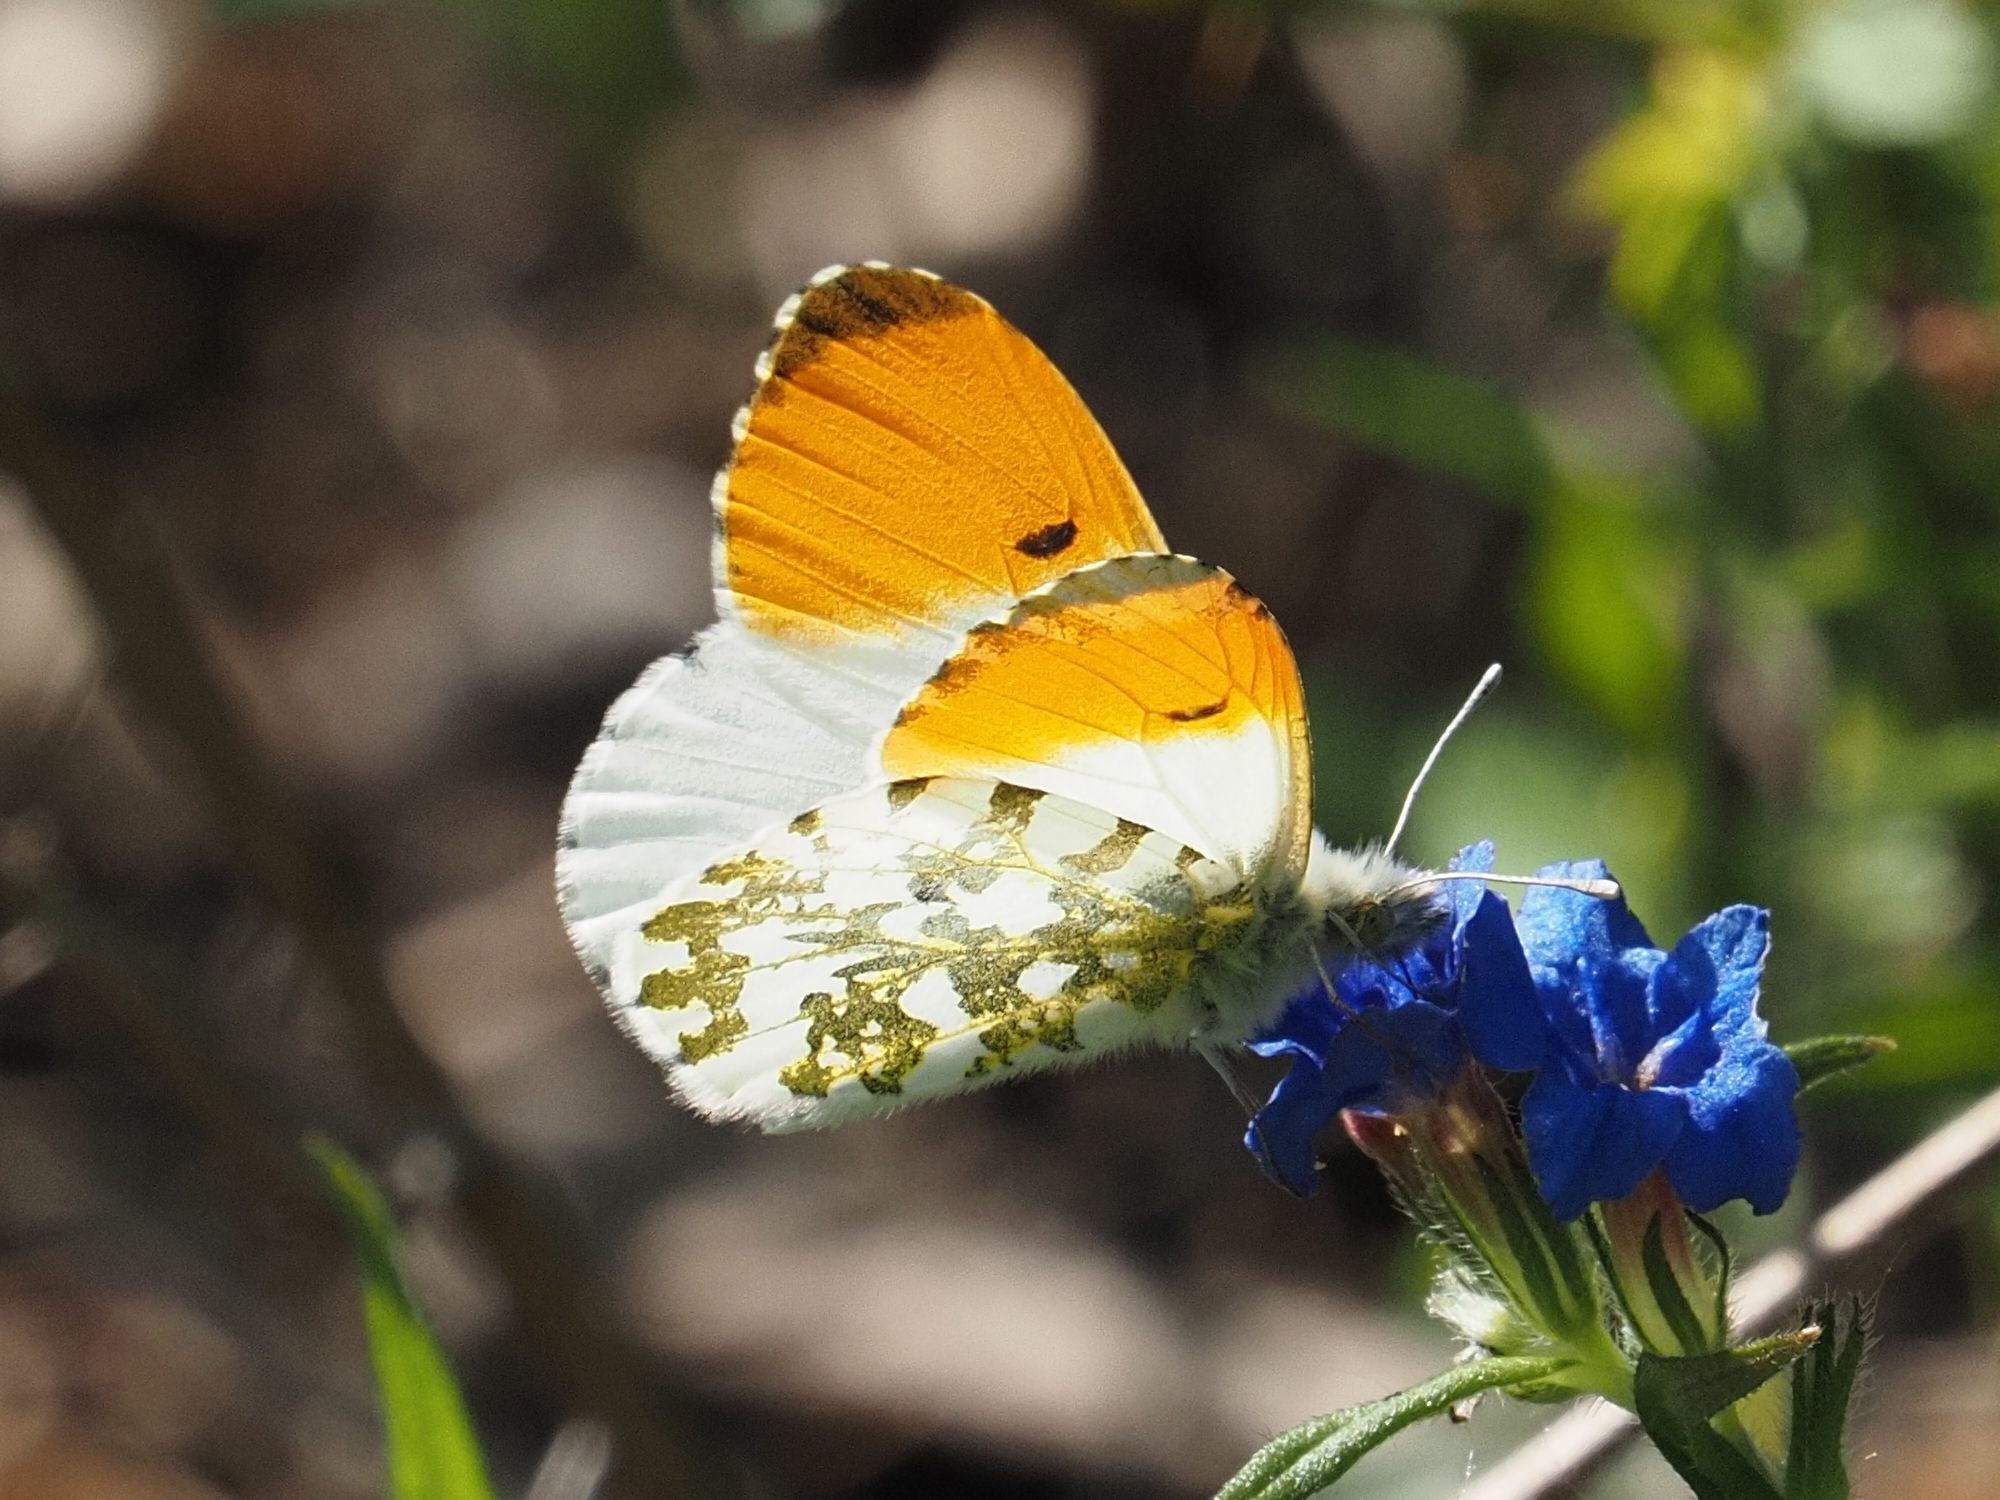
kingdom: Animalia
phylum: Arthropoda
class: Insecta
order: Lepidoptera
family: Pieridae
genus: Anthocharis
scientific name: Anthocharis cardamines
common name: Orange-tip
